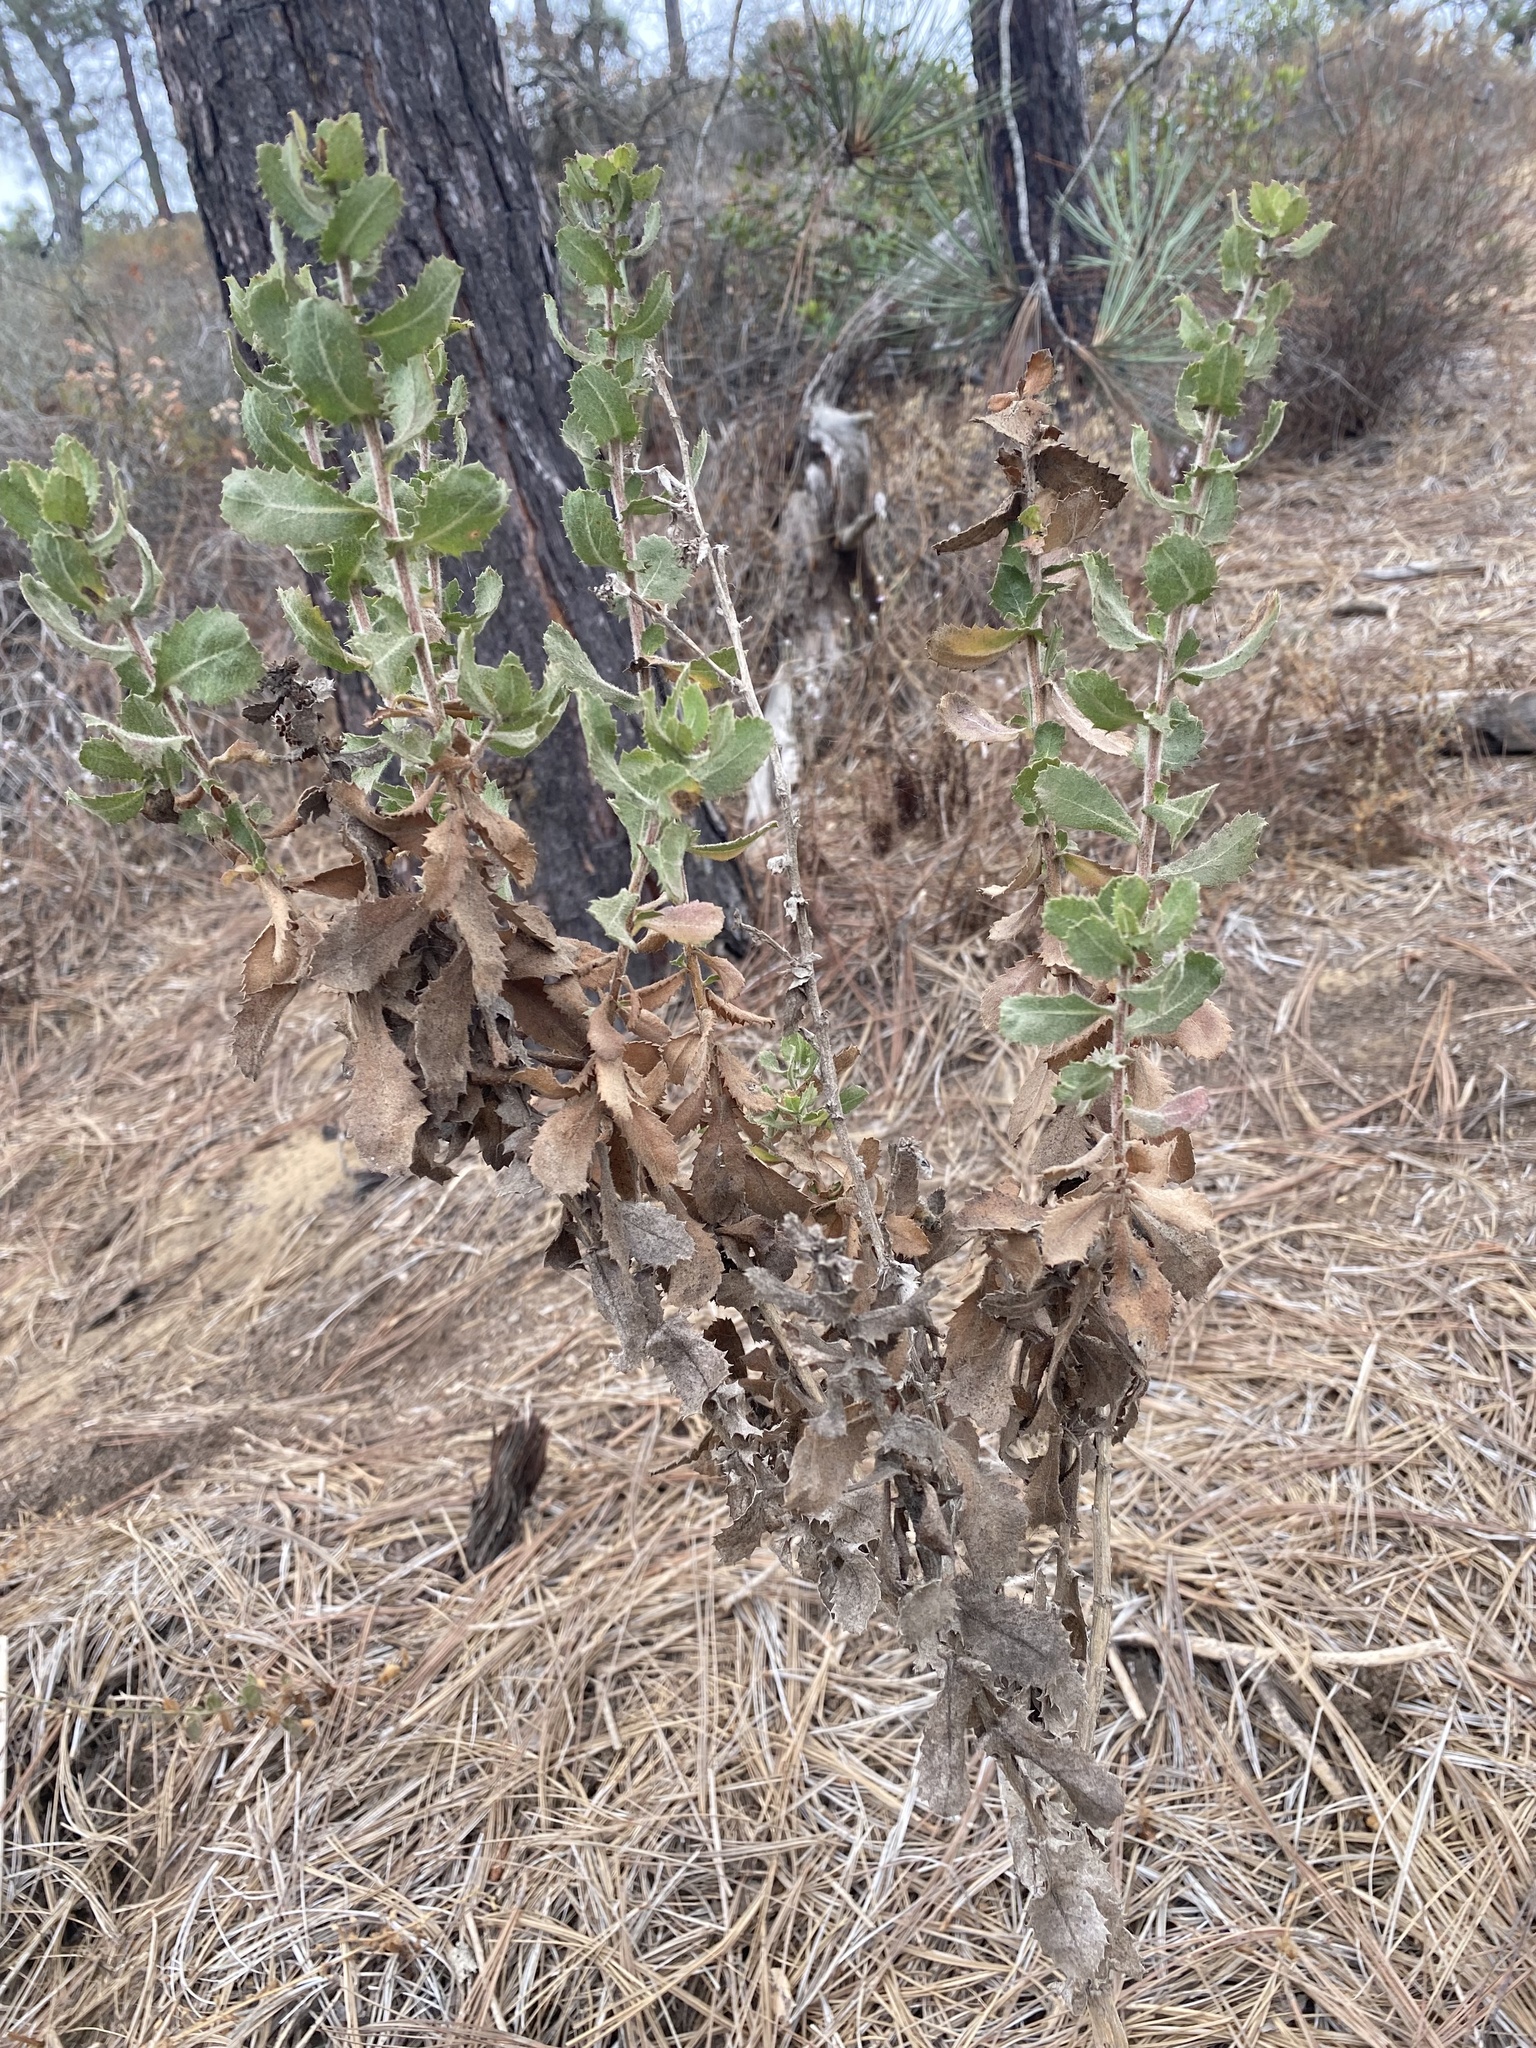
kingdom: Plantae
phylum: Tracheophyta
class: Magnoliopsida
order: Asterales
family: Asteraceae
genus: Hazardia
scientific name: Hazardia squarrosa
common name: Saw-tooth goldenbush
